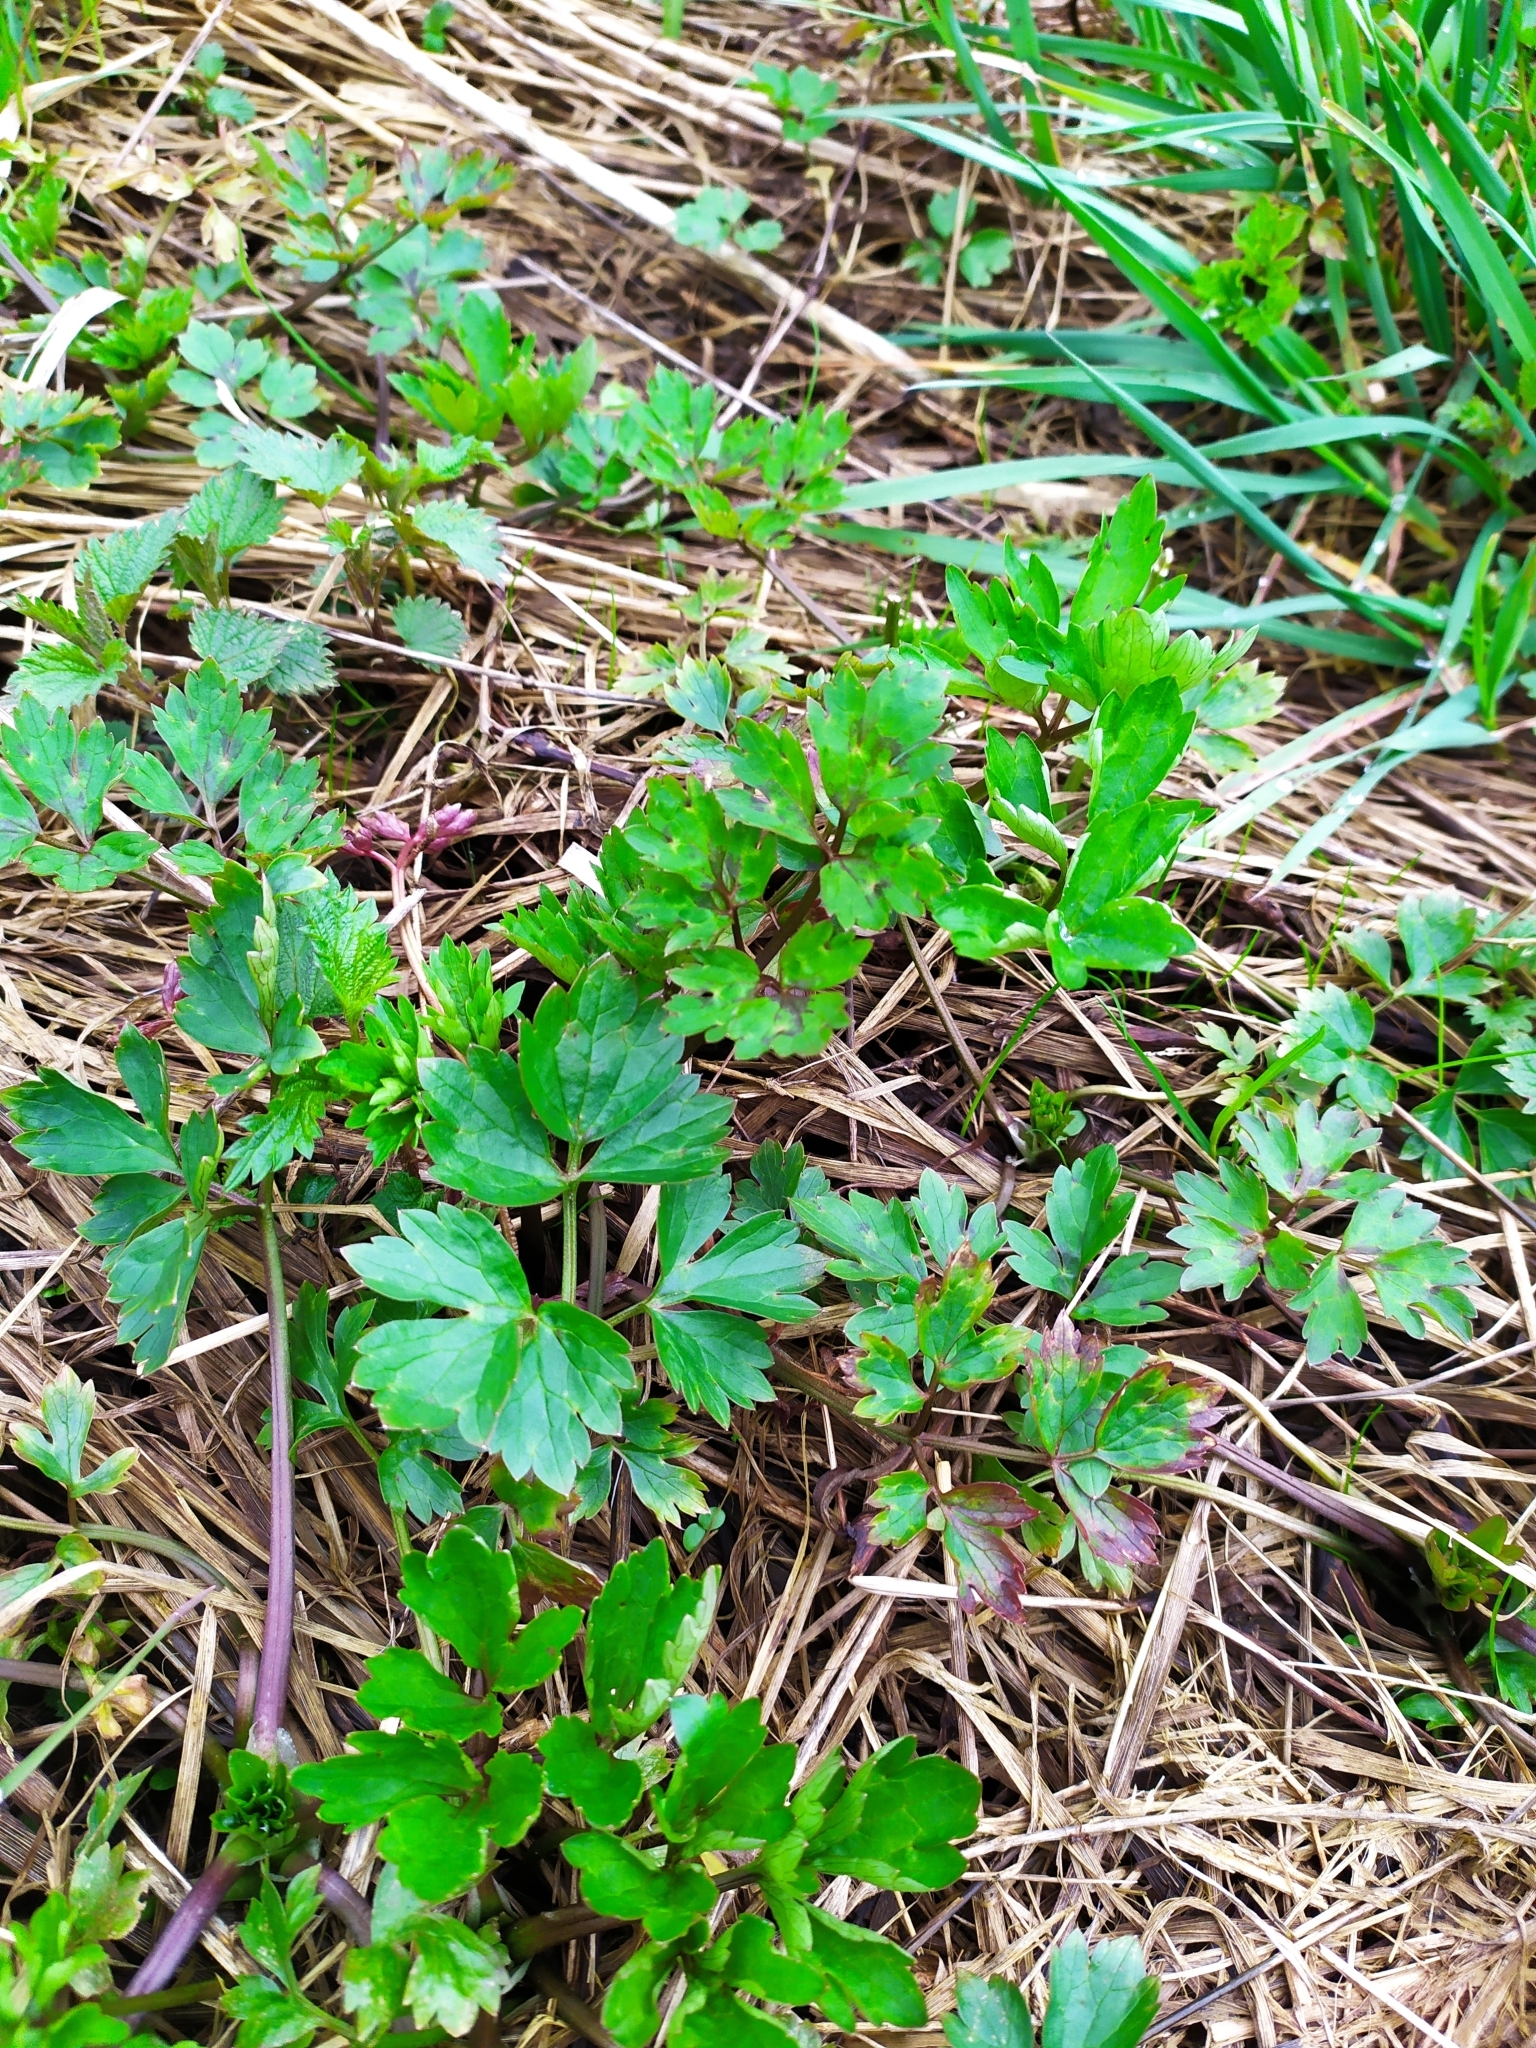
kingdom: Plantae
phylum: Tracheophyta
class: Magnoliopsida
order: Ranunculales
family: Ranunculaceae
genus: Ranunculus
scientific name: Ranunculus repens
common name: Creeping buttercup
